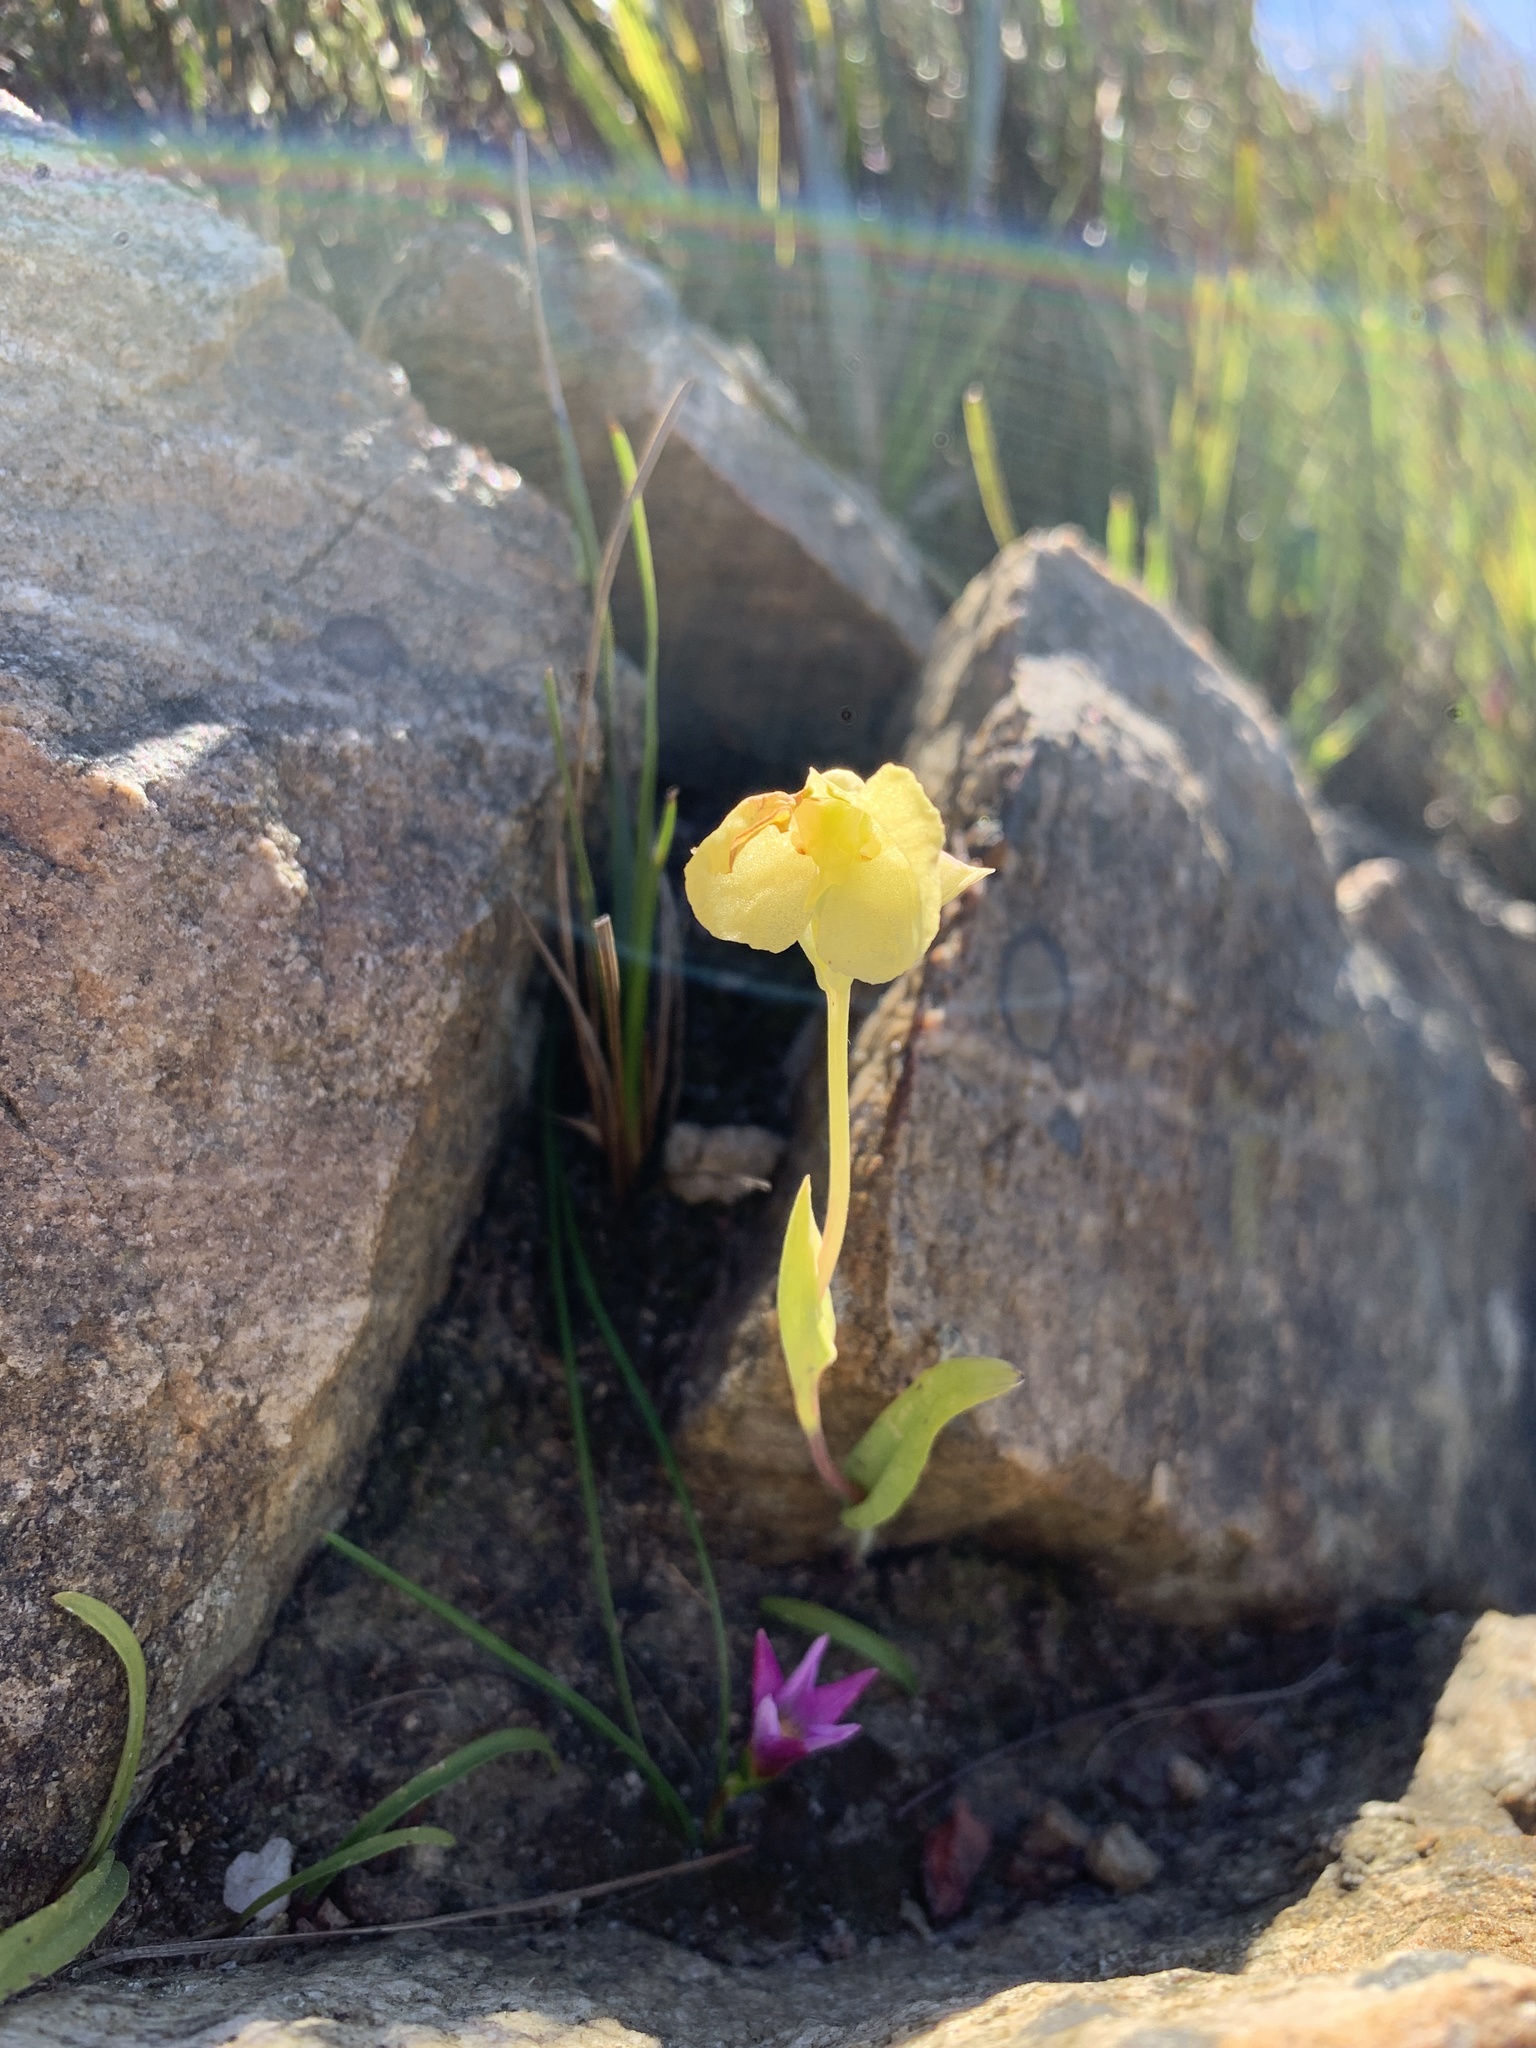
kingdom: Plantae
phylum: Tracheophyta
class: Liliopsida
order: Asparagales
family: Orchidaceae
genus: Pterygodium
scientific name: Pterygodium platypetalum
